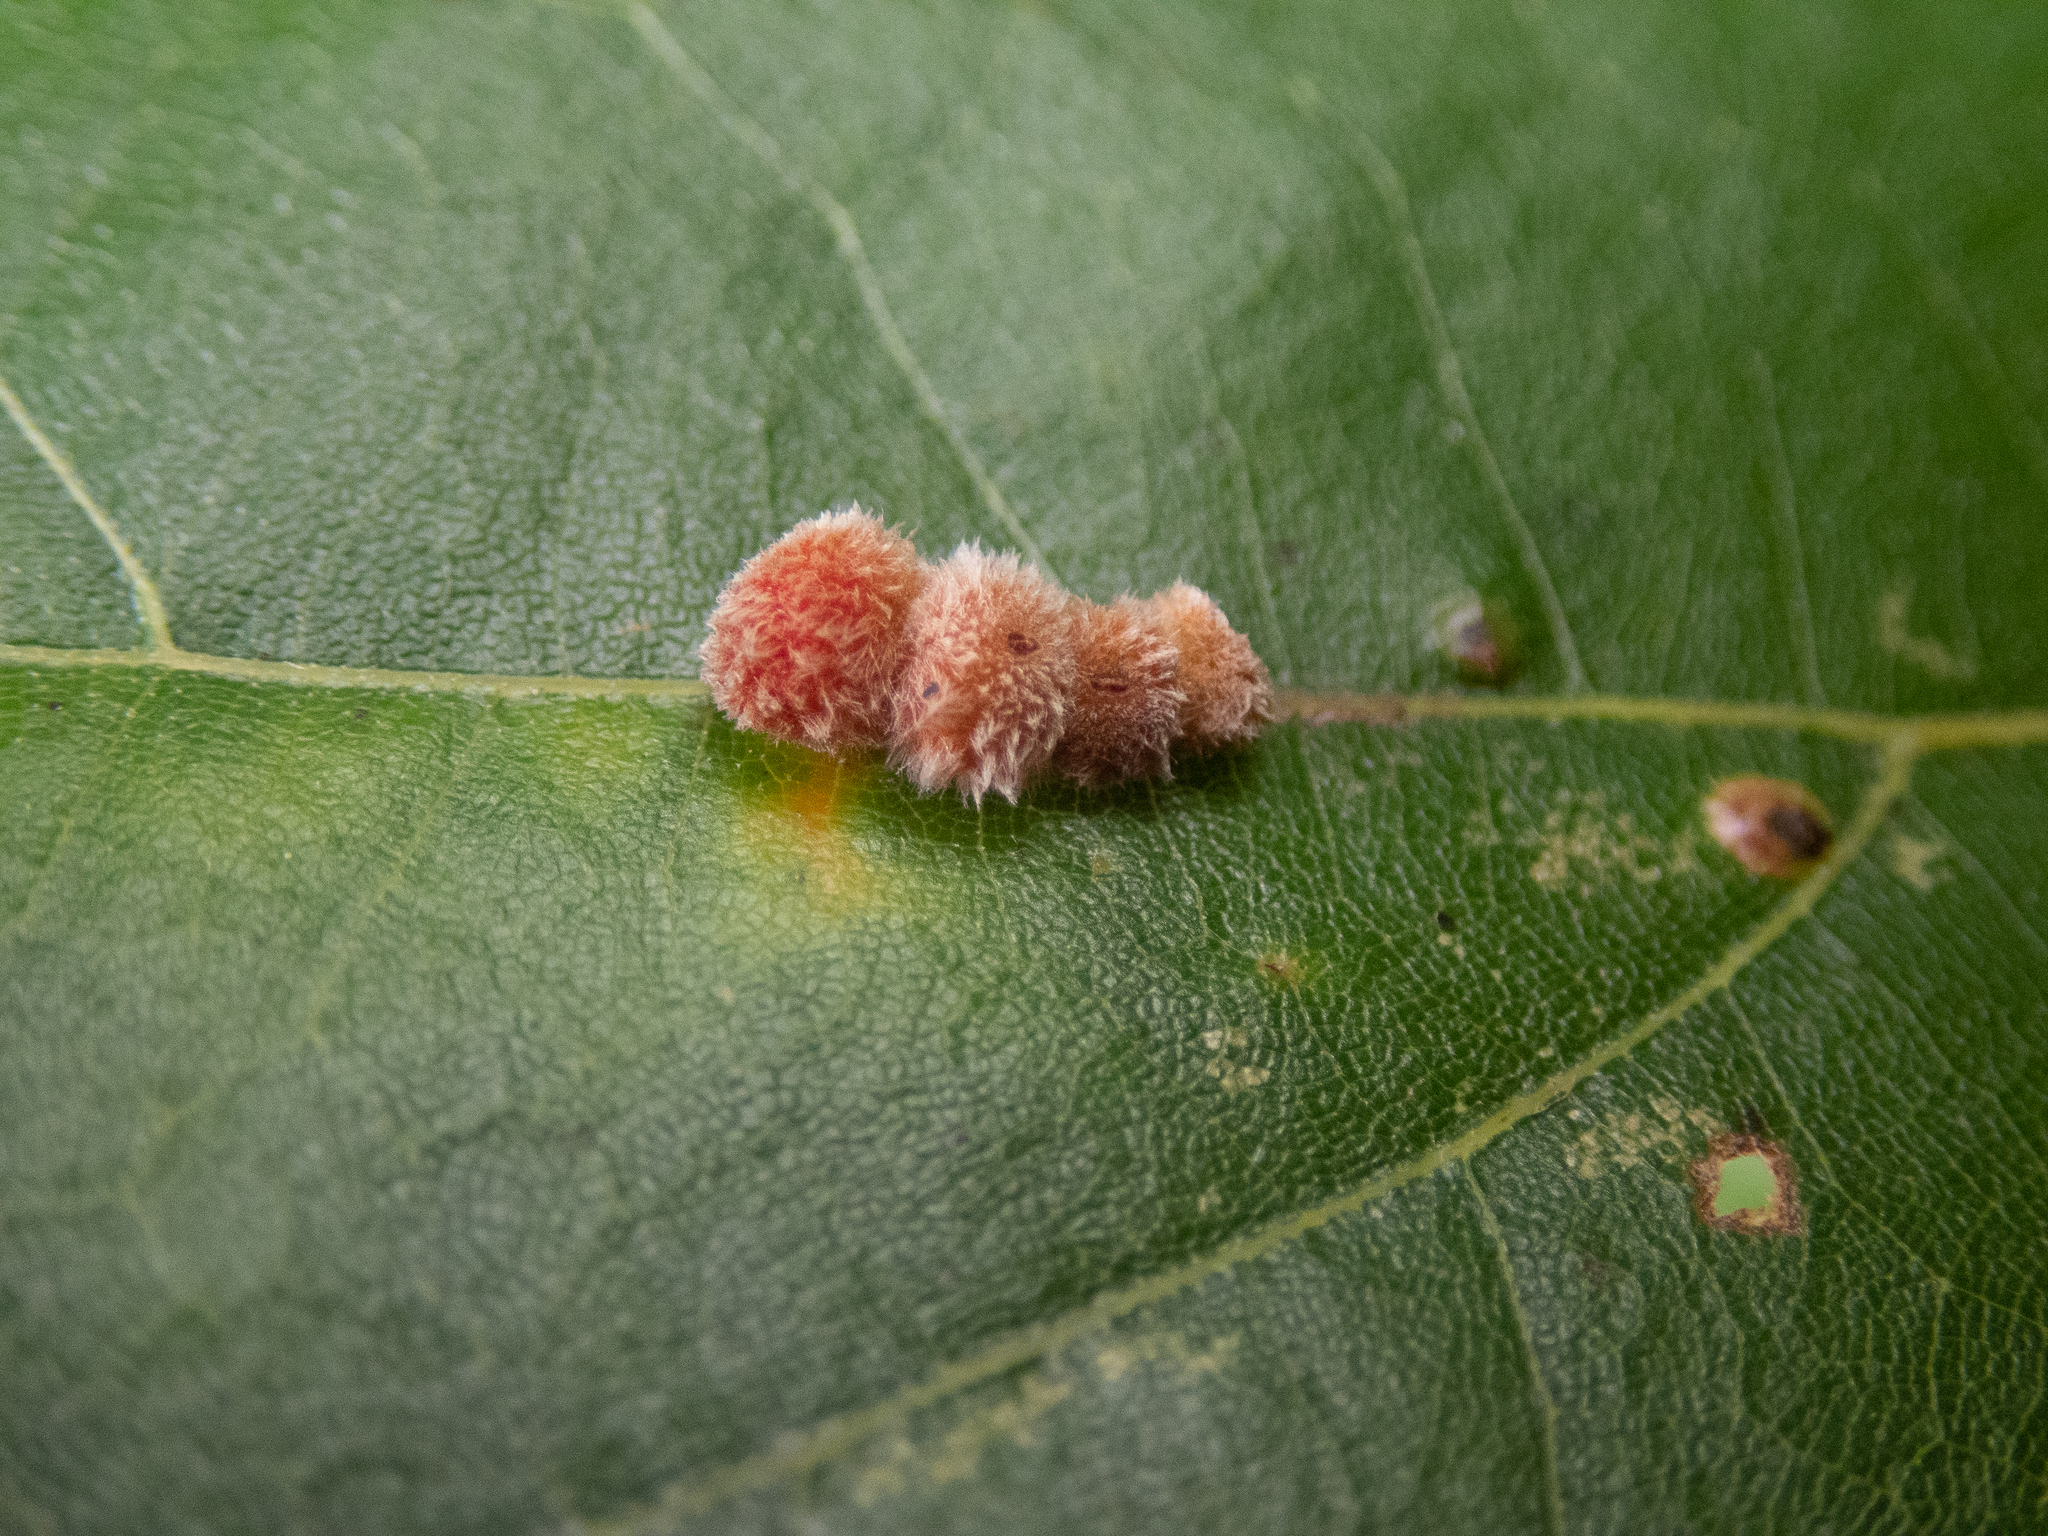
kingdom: Animalia
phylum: Arthropoda
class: Insecta
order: Hymenoptera
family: Cynipidae
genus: Callirhytis
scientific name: Callirhytis
